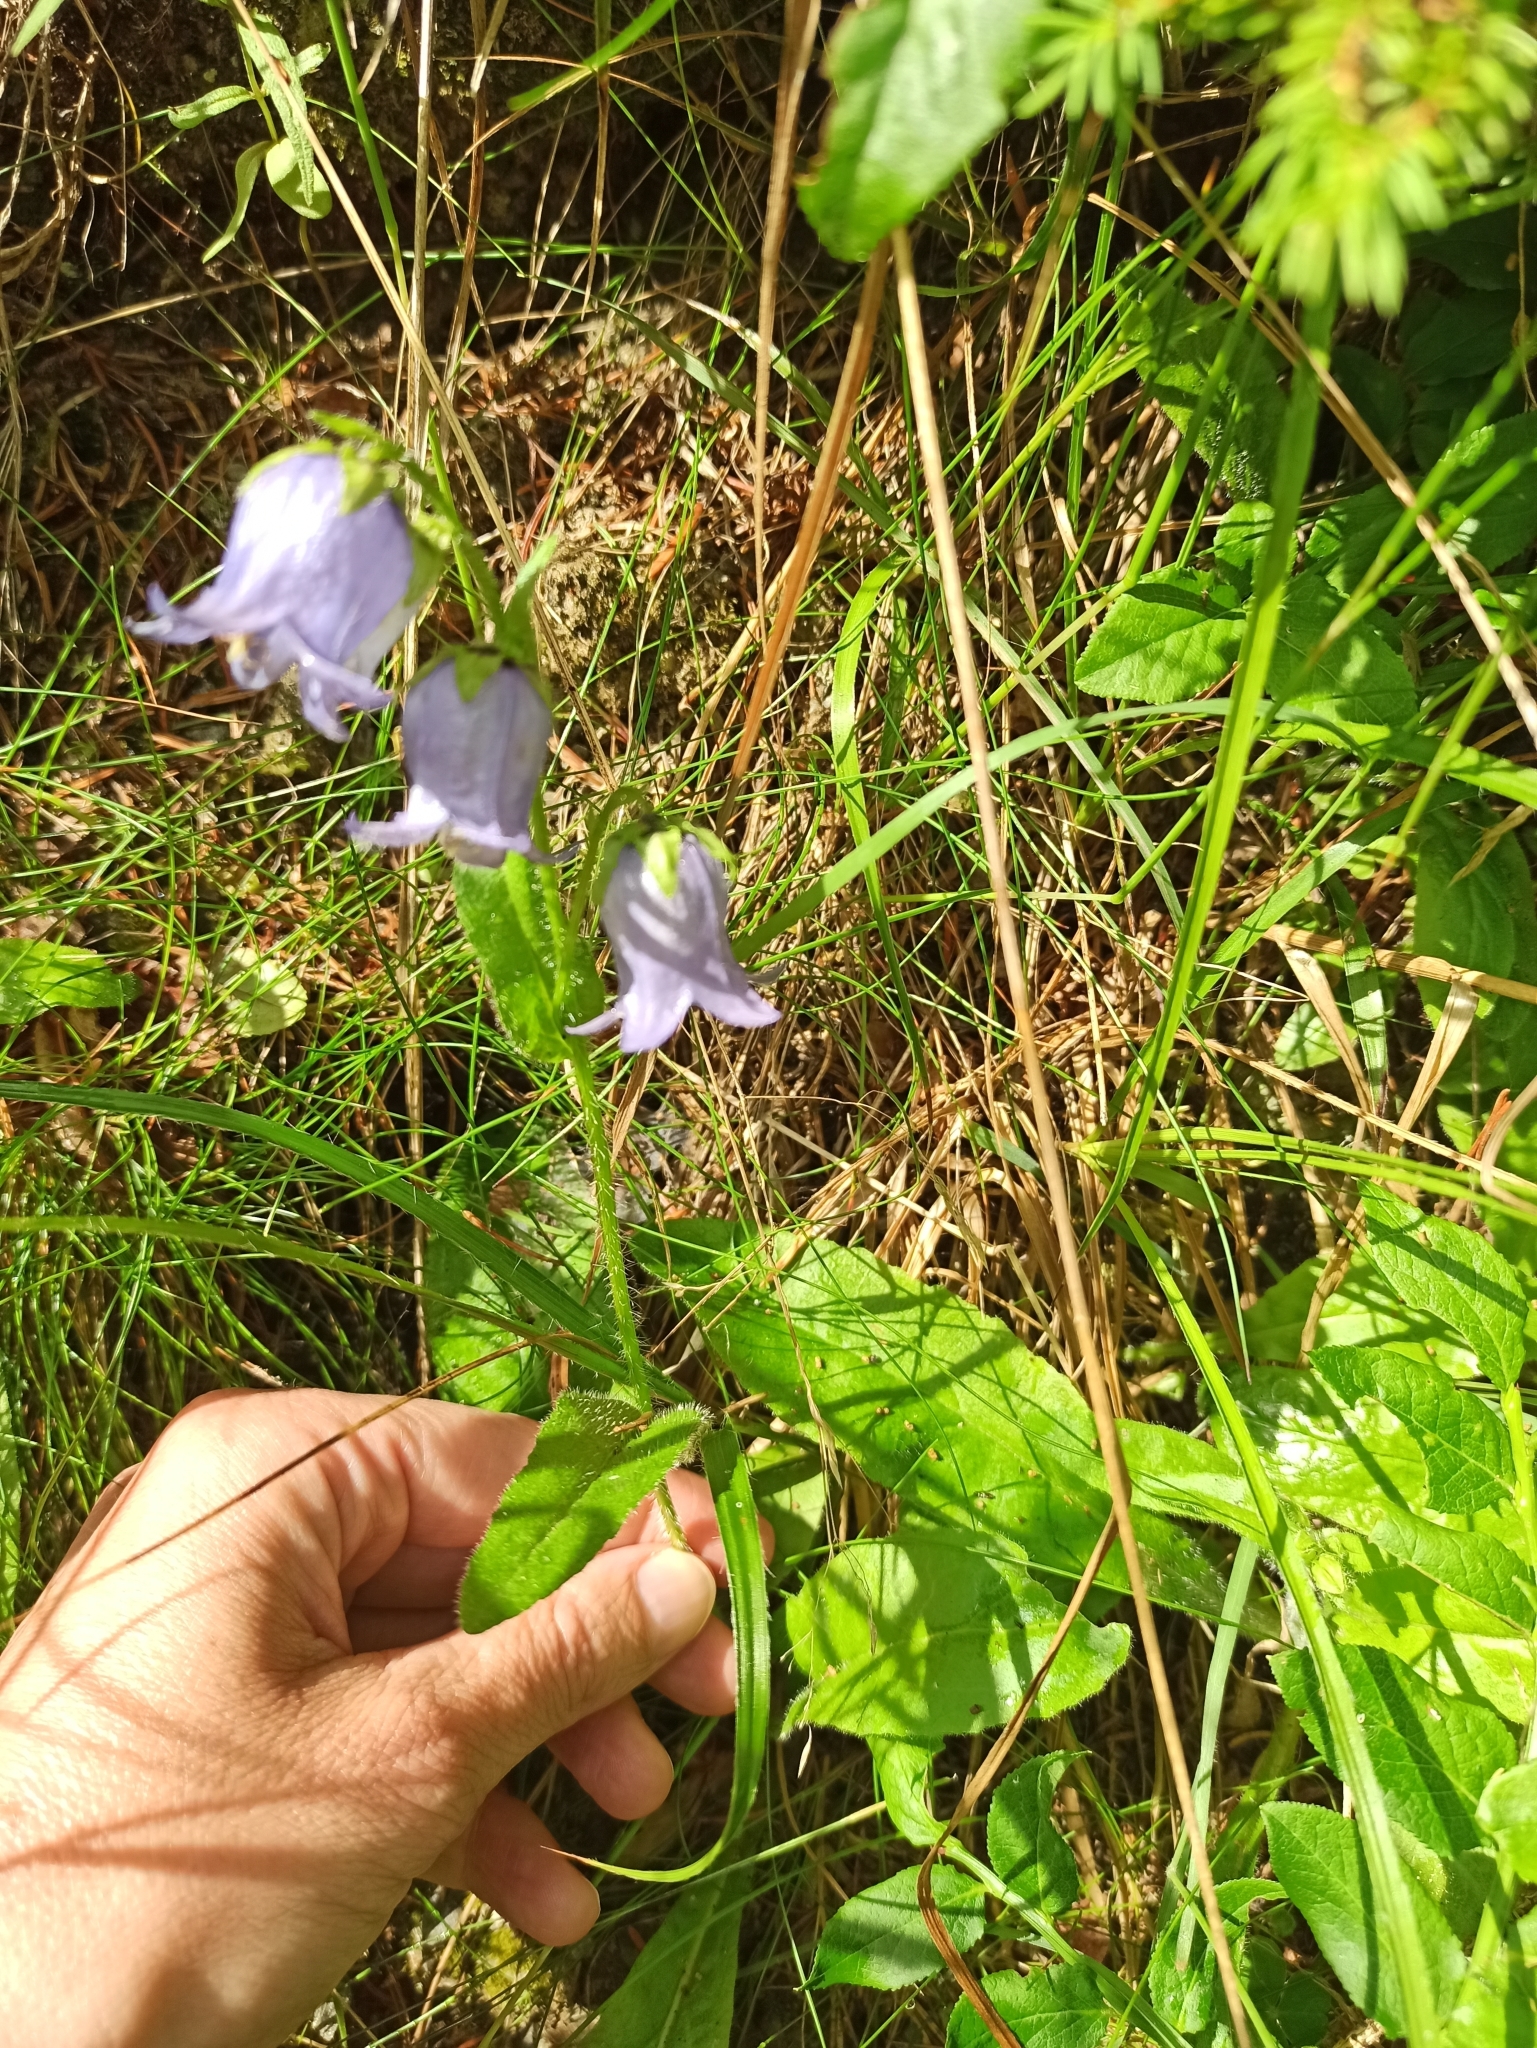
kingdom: Plantae
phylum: Tracheophyta
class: Magnoliopsida
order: Asterales
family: Campanulaceae
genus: Campanula
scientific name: Campanula barbata
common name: Bearded bellflower
